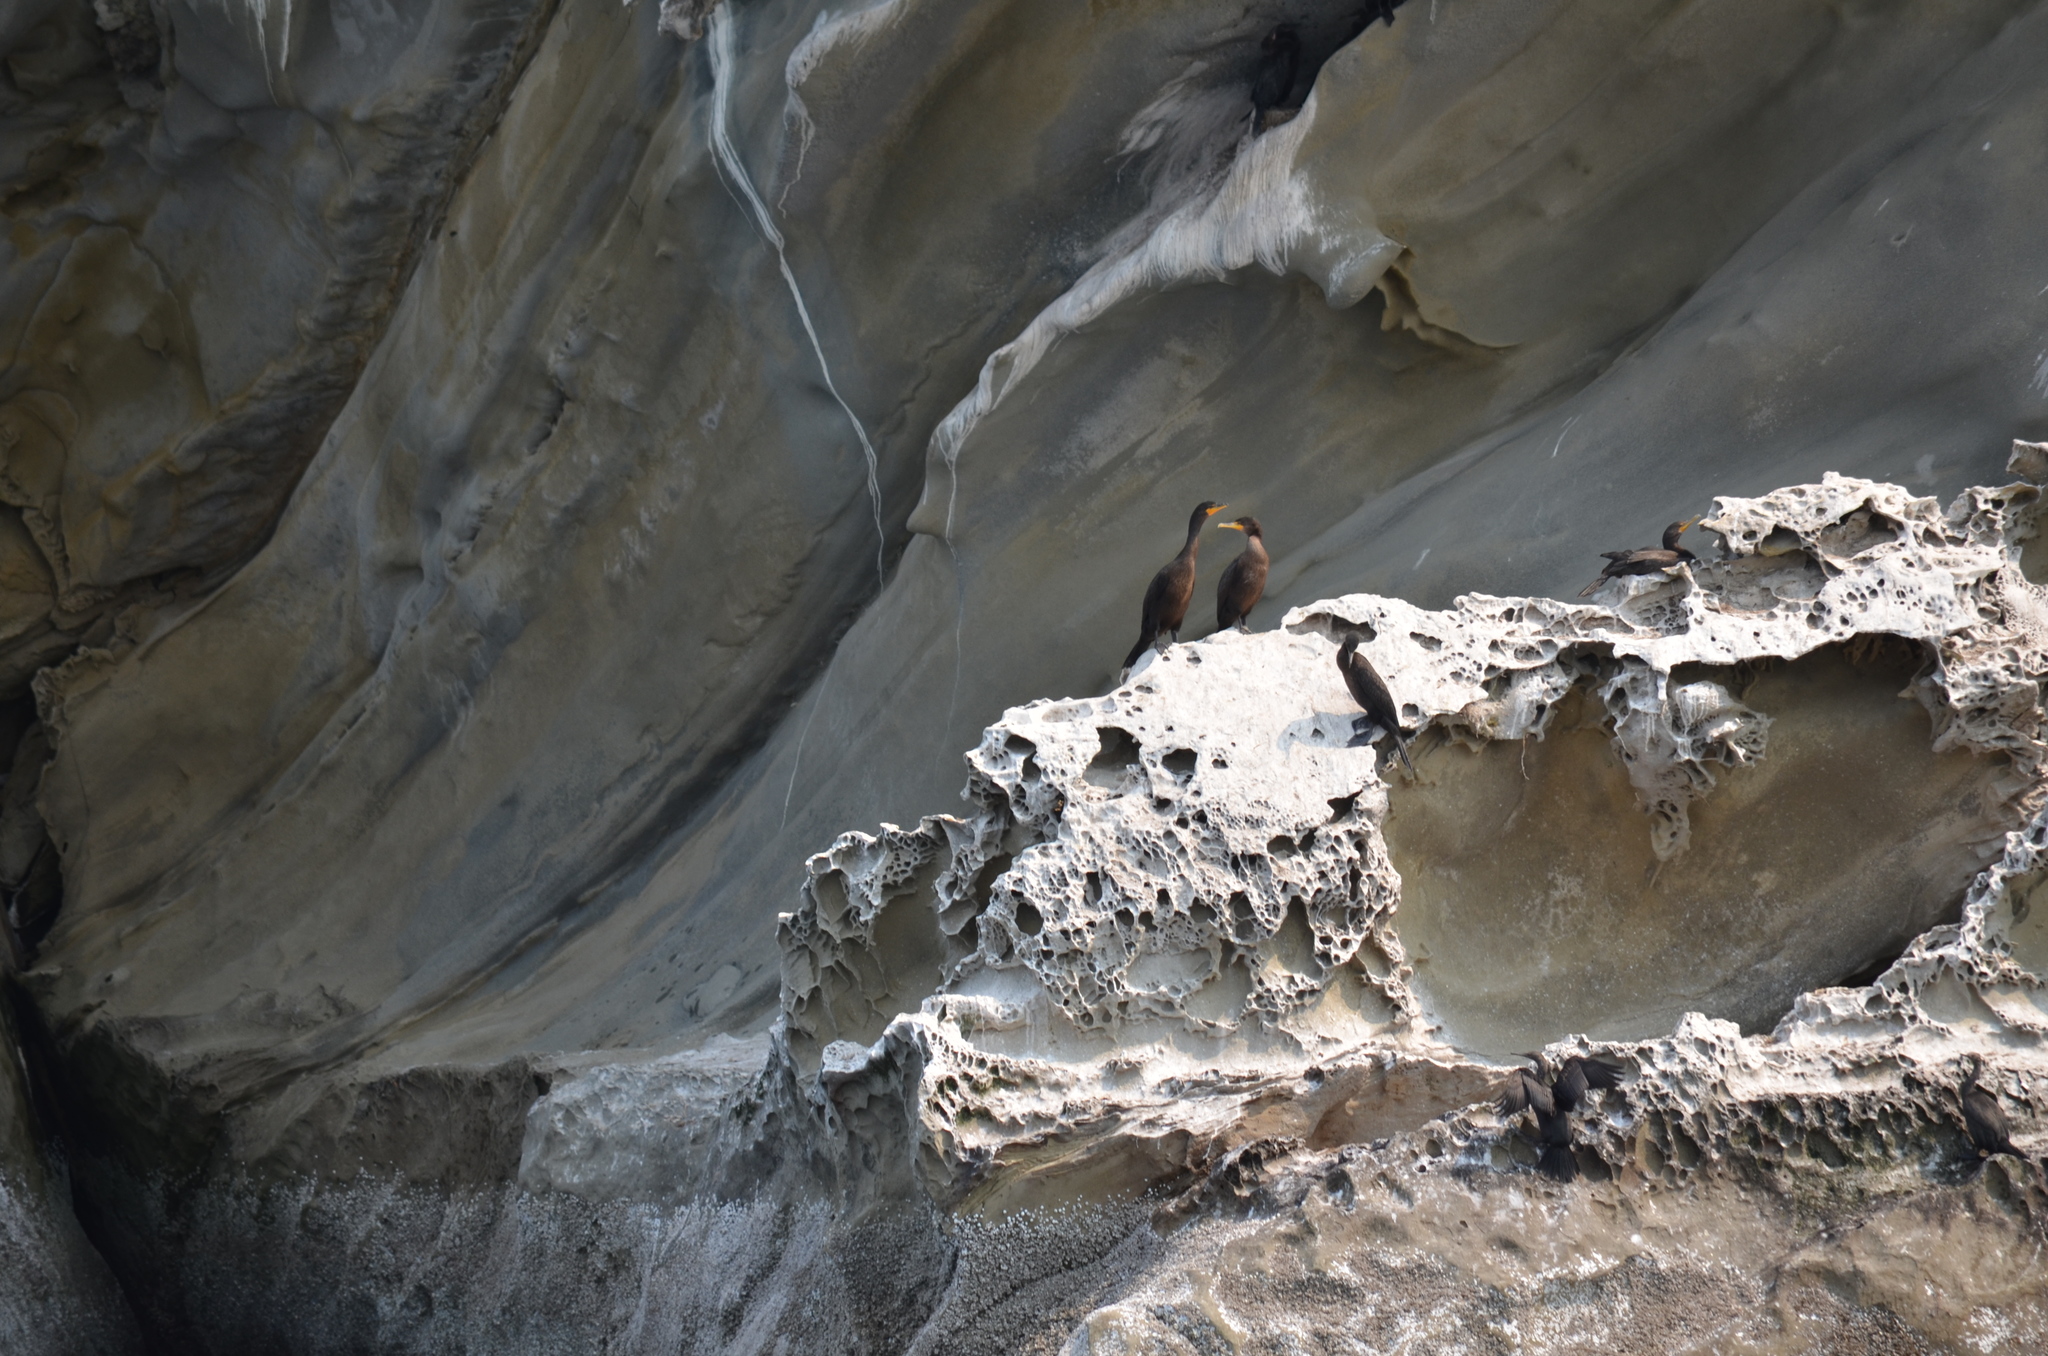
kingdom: Animalia
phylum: Chordata
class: Aves
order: Suliformes
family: Phalacrocoracidae
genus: Phalacrocorax
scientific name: Phalacrocorax auritus
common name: Double-crested cormorant
